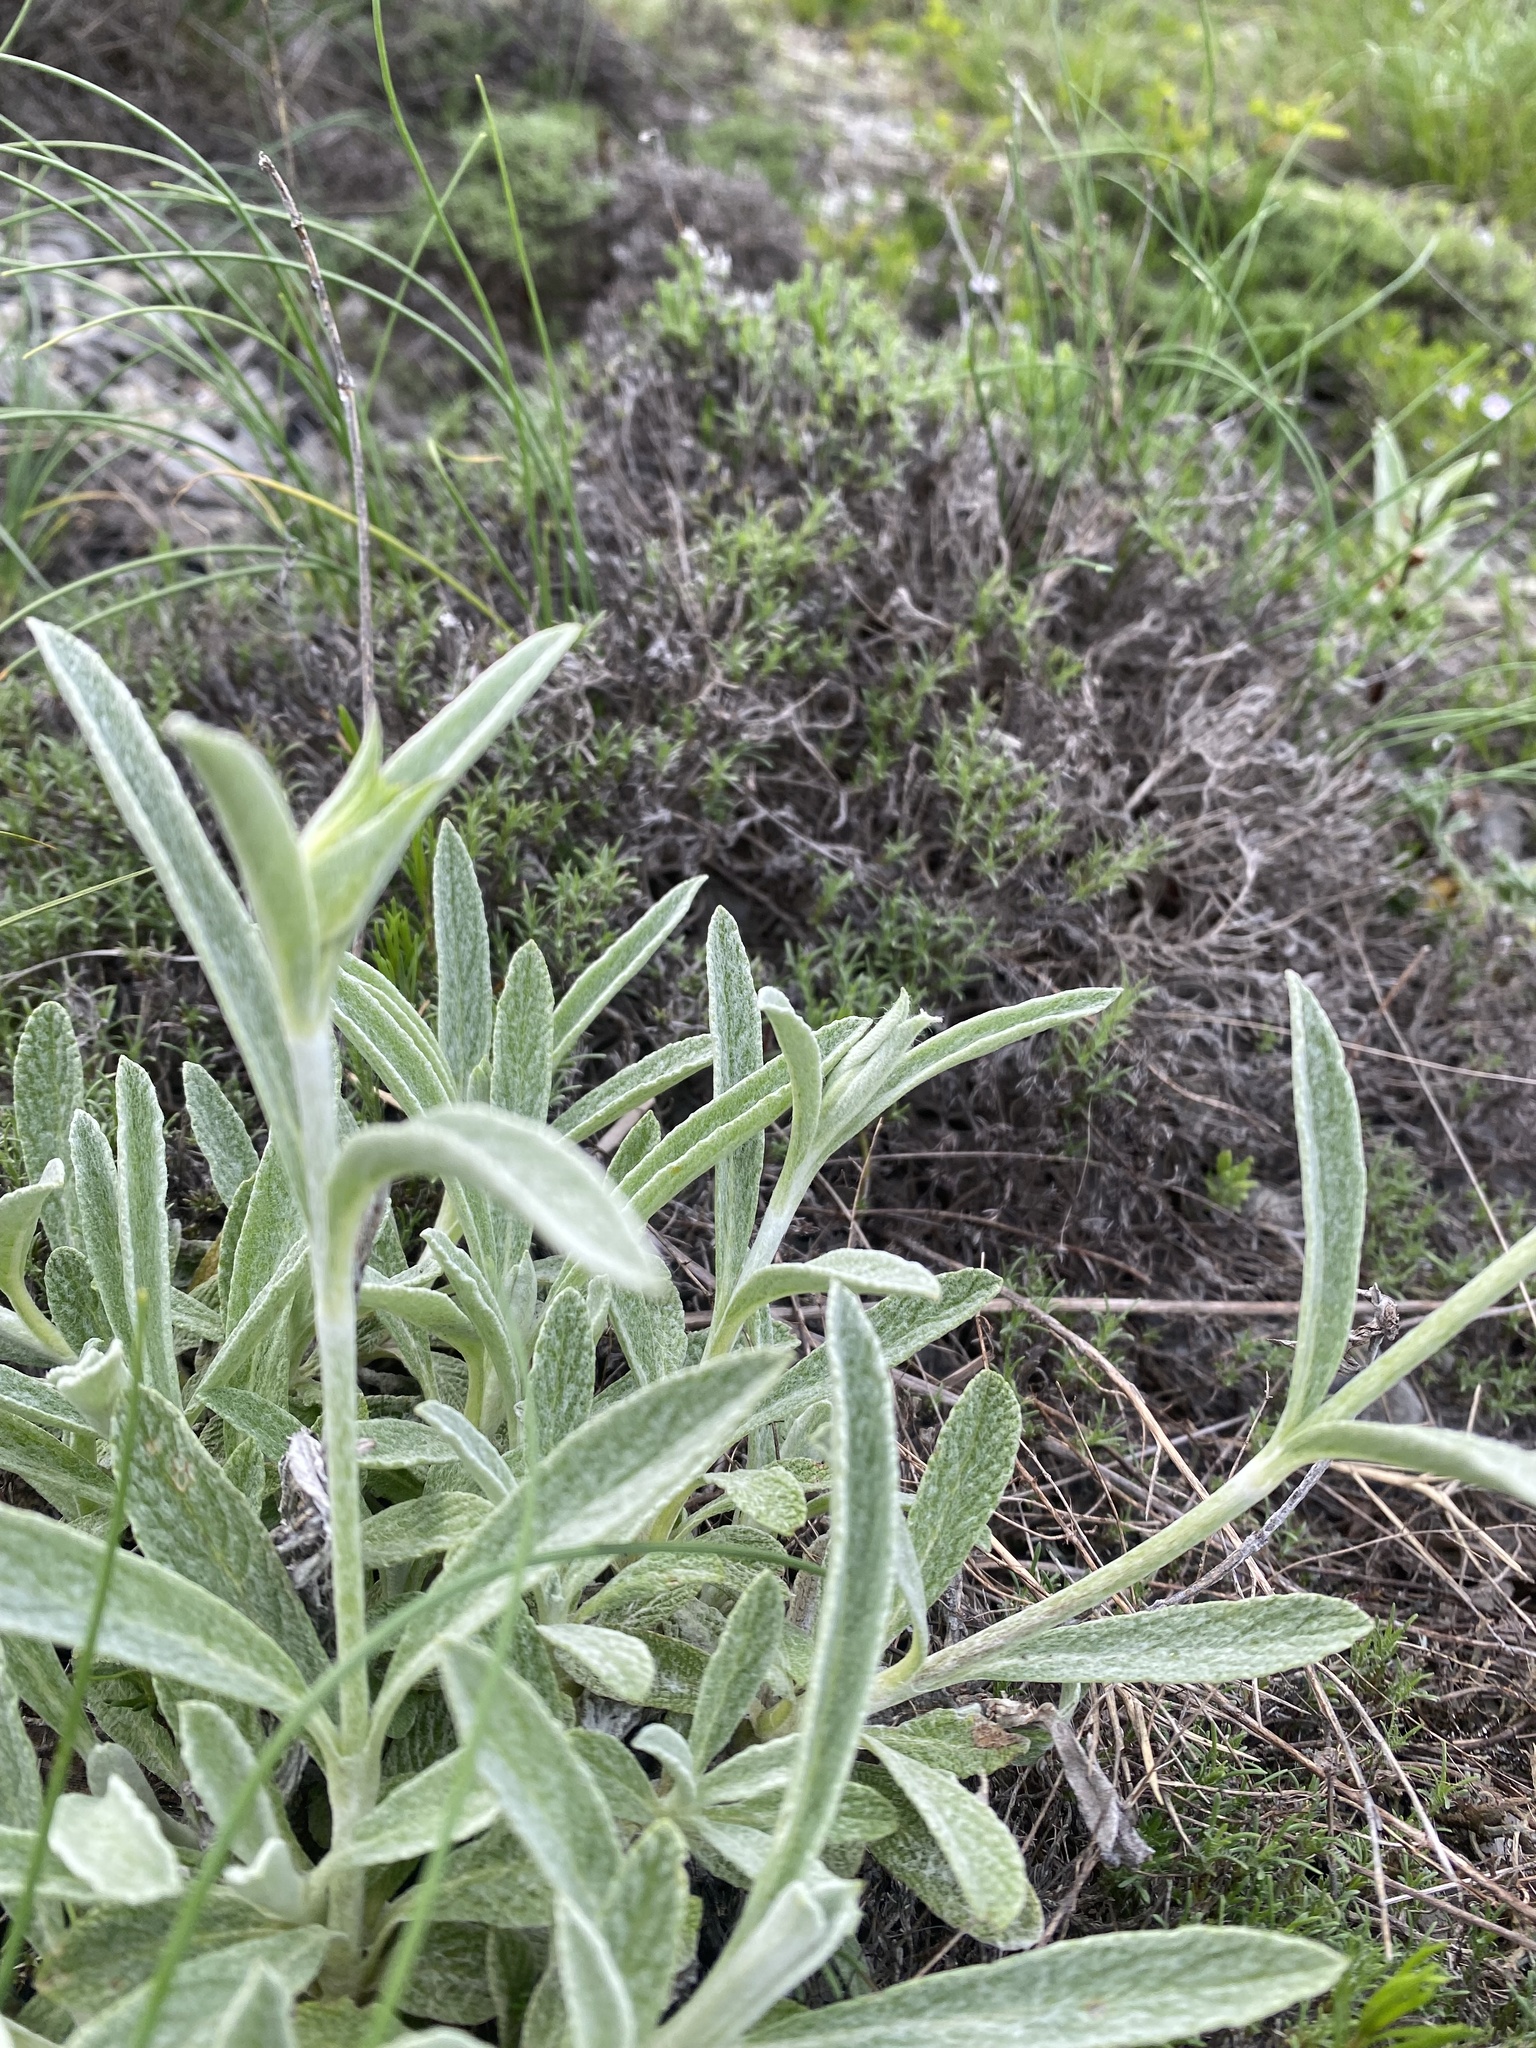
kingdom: Plantae
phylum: Tracheophyta
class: Magnoliopsida
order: Lamiales
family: Lamiaceae
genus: Sideritis
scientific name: Sideritis euxina
